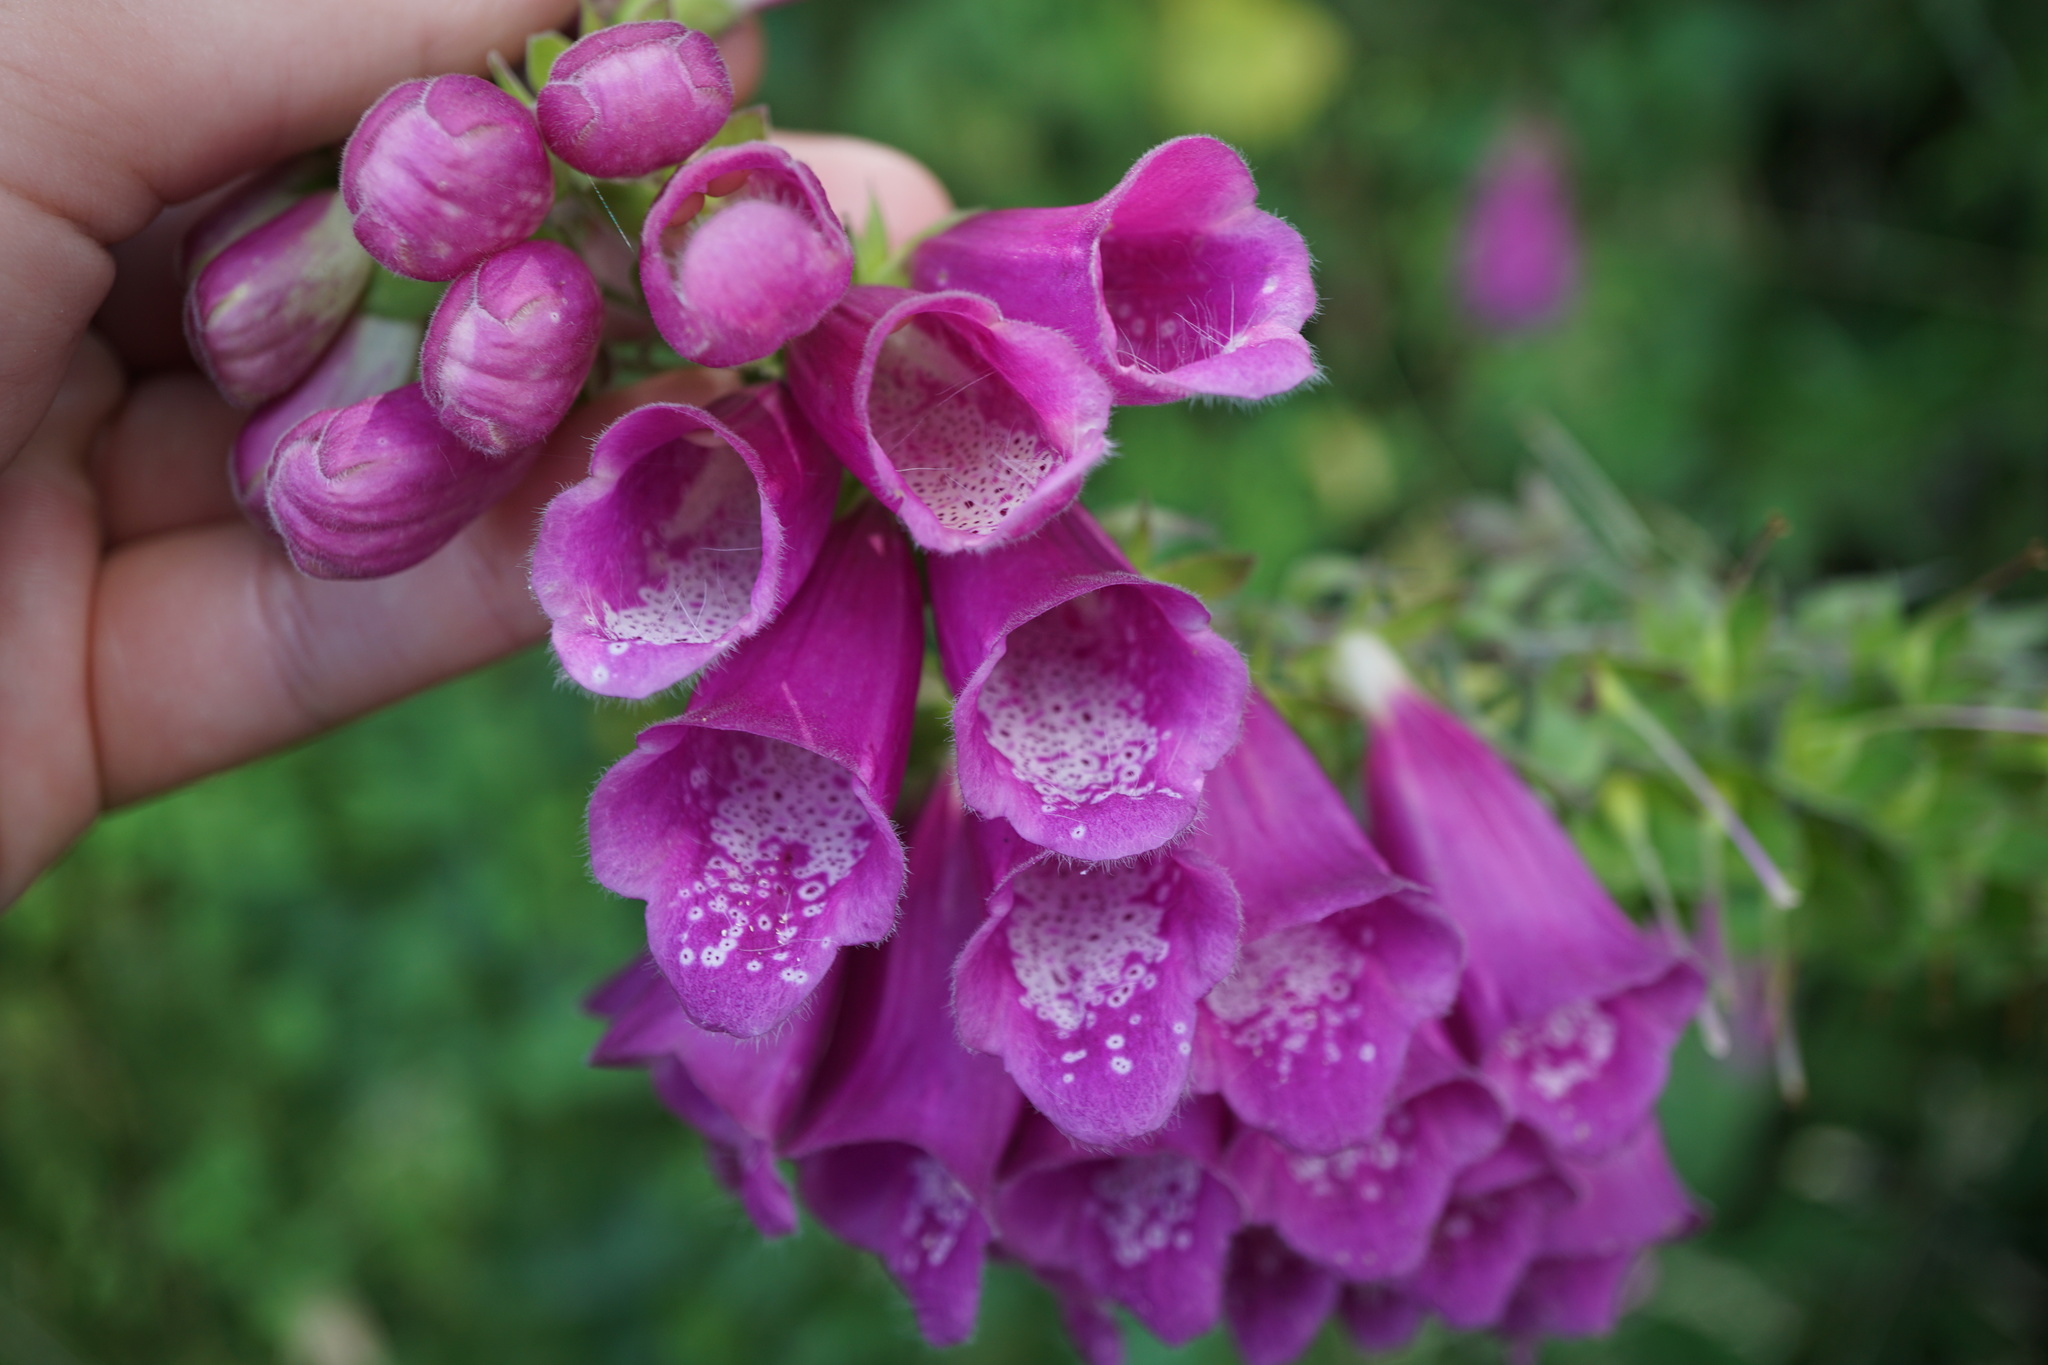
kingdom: Plantae
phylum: Tracheophyta
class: Magnoliopsida
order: Lamiales
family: Plantaginaceae
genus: Digitalis
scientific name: Digitalis purpurea
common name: Foxglove
